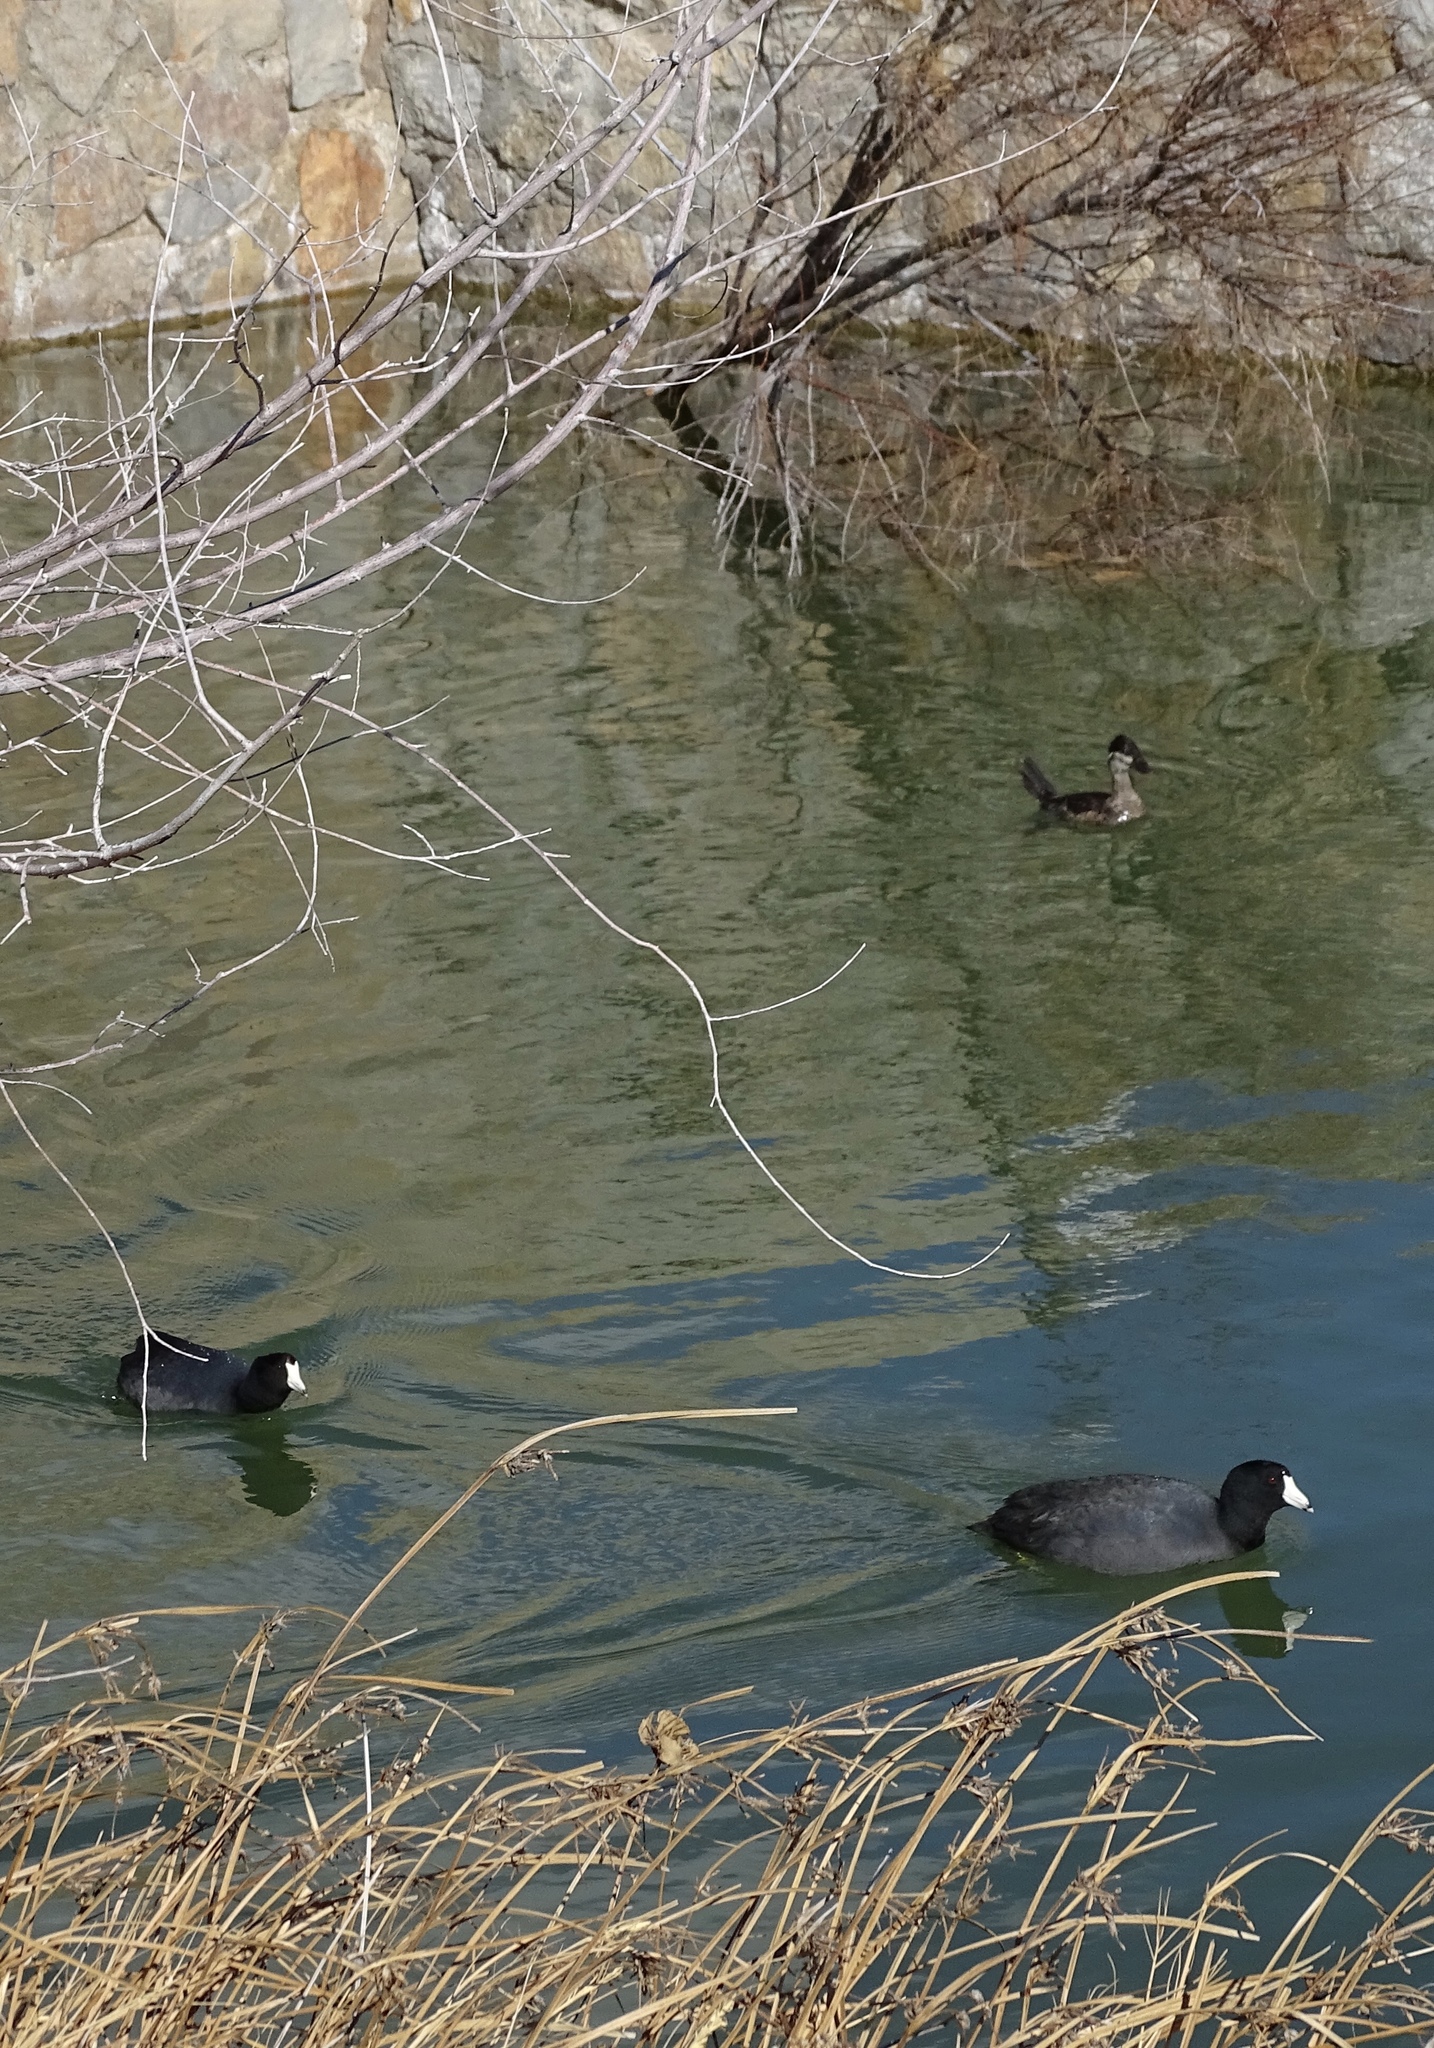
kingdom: Animalia
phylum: Chordata
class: Aves
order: Anseriformes
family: Anatidae
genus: Oxyura
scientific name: Oxyura jamaicensis
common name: Ruddy duck
